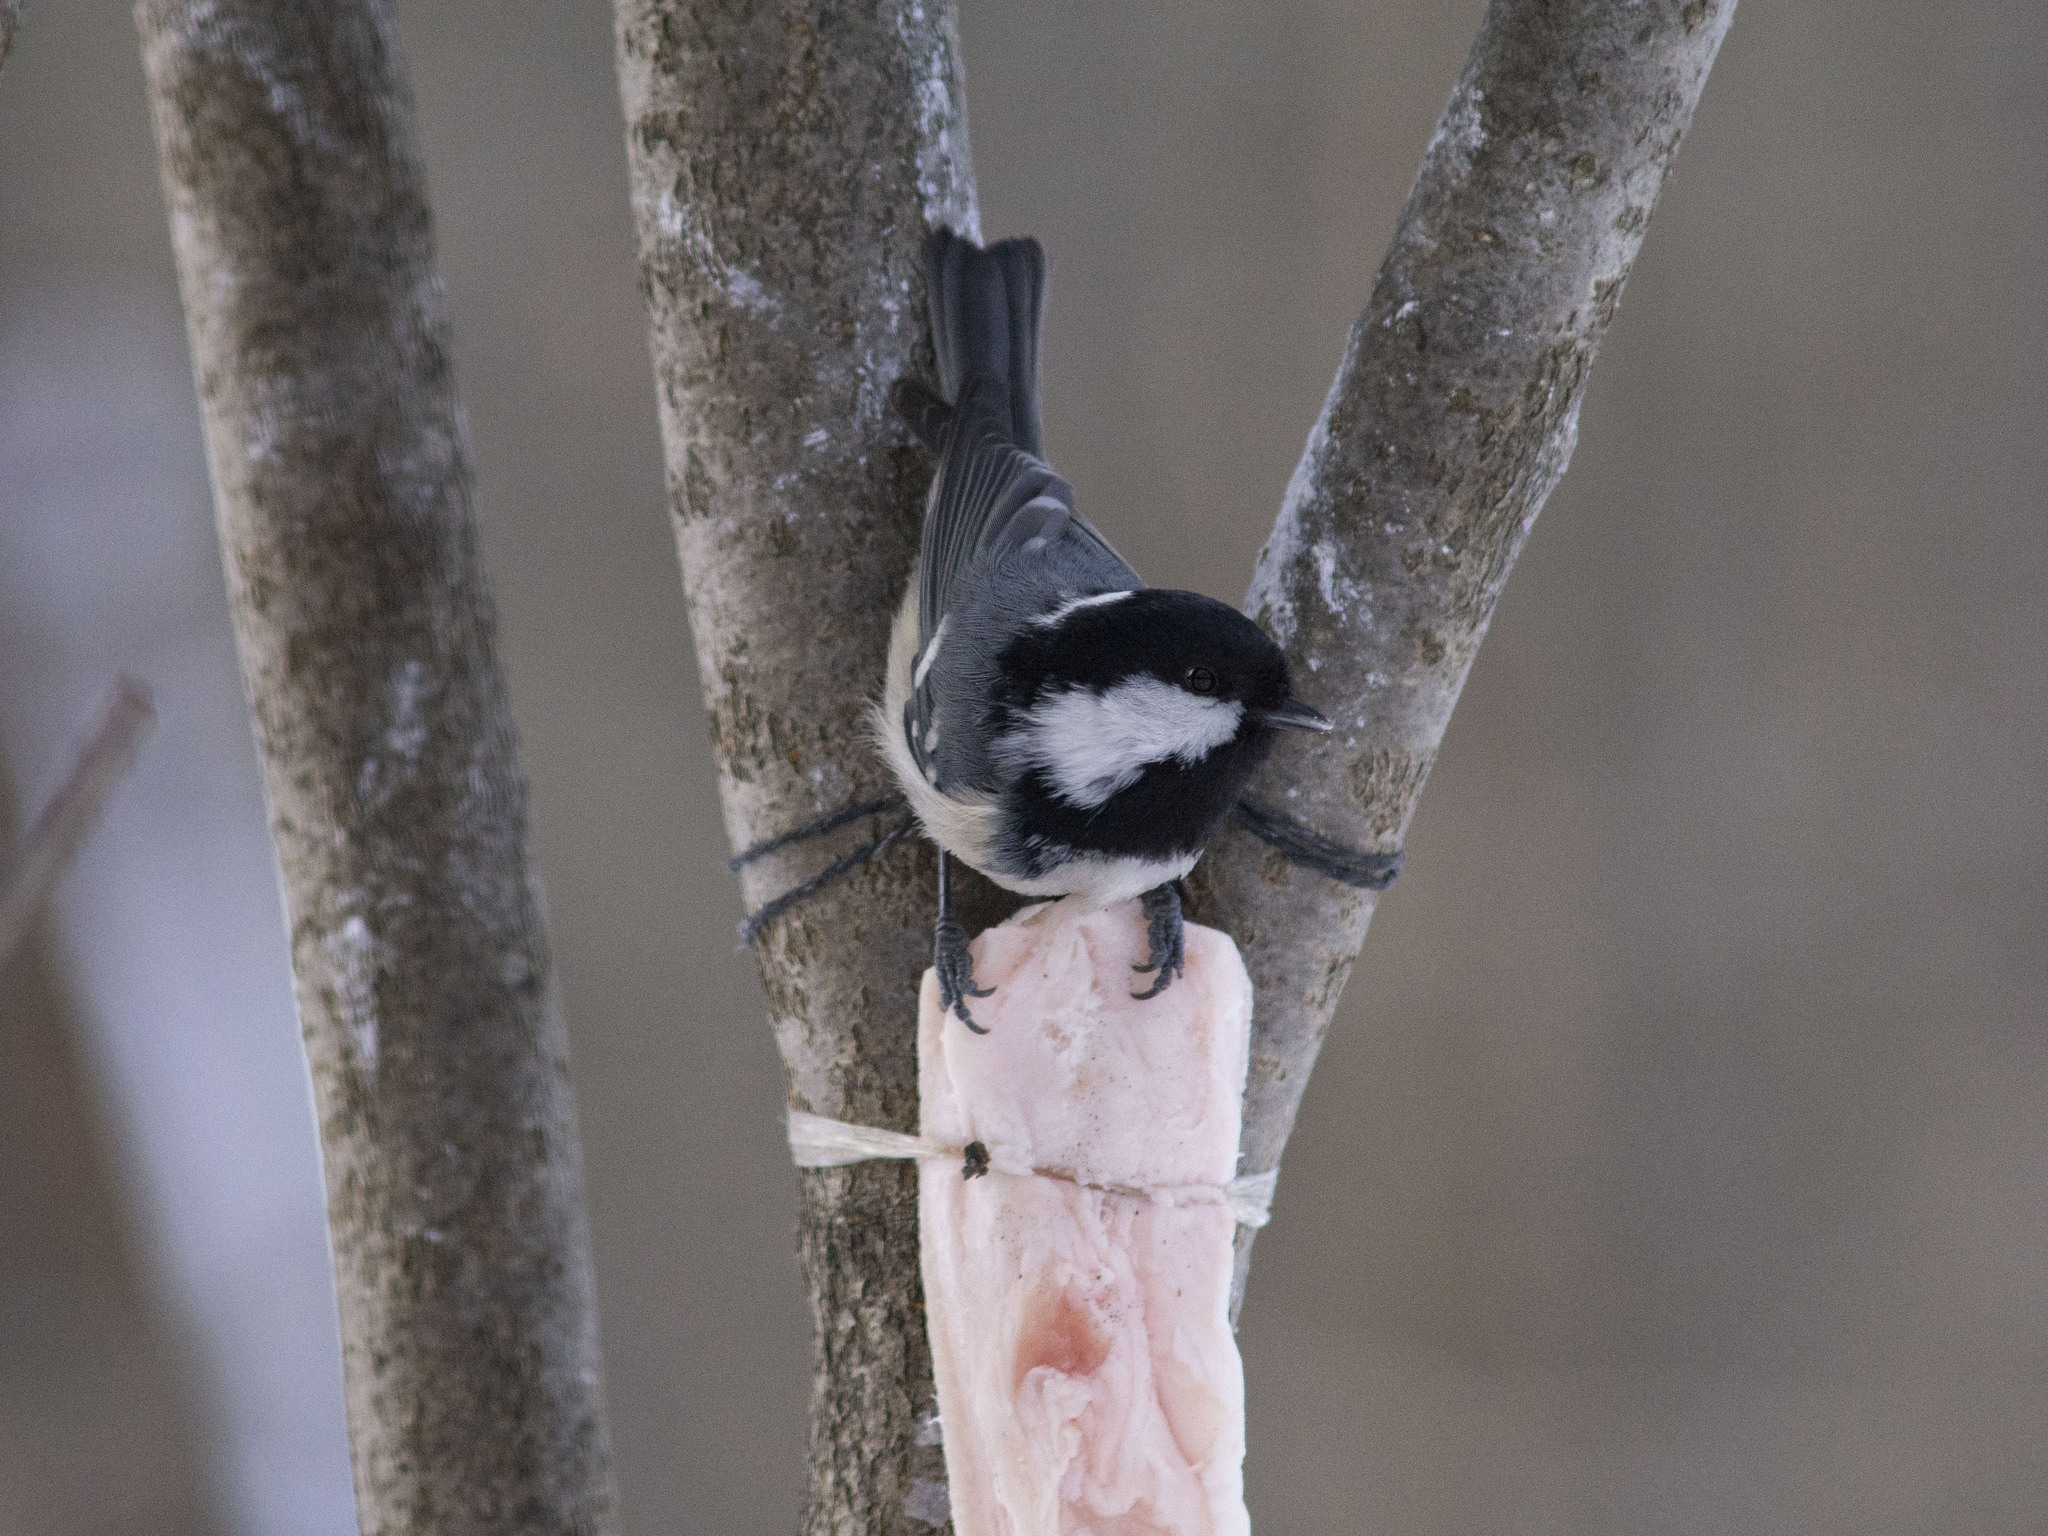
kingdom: Animalia
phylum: Chordata
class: Aves
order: Passeriformes
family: Paridae
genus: Periparus
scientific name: Periparus ater
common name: Coal tit
